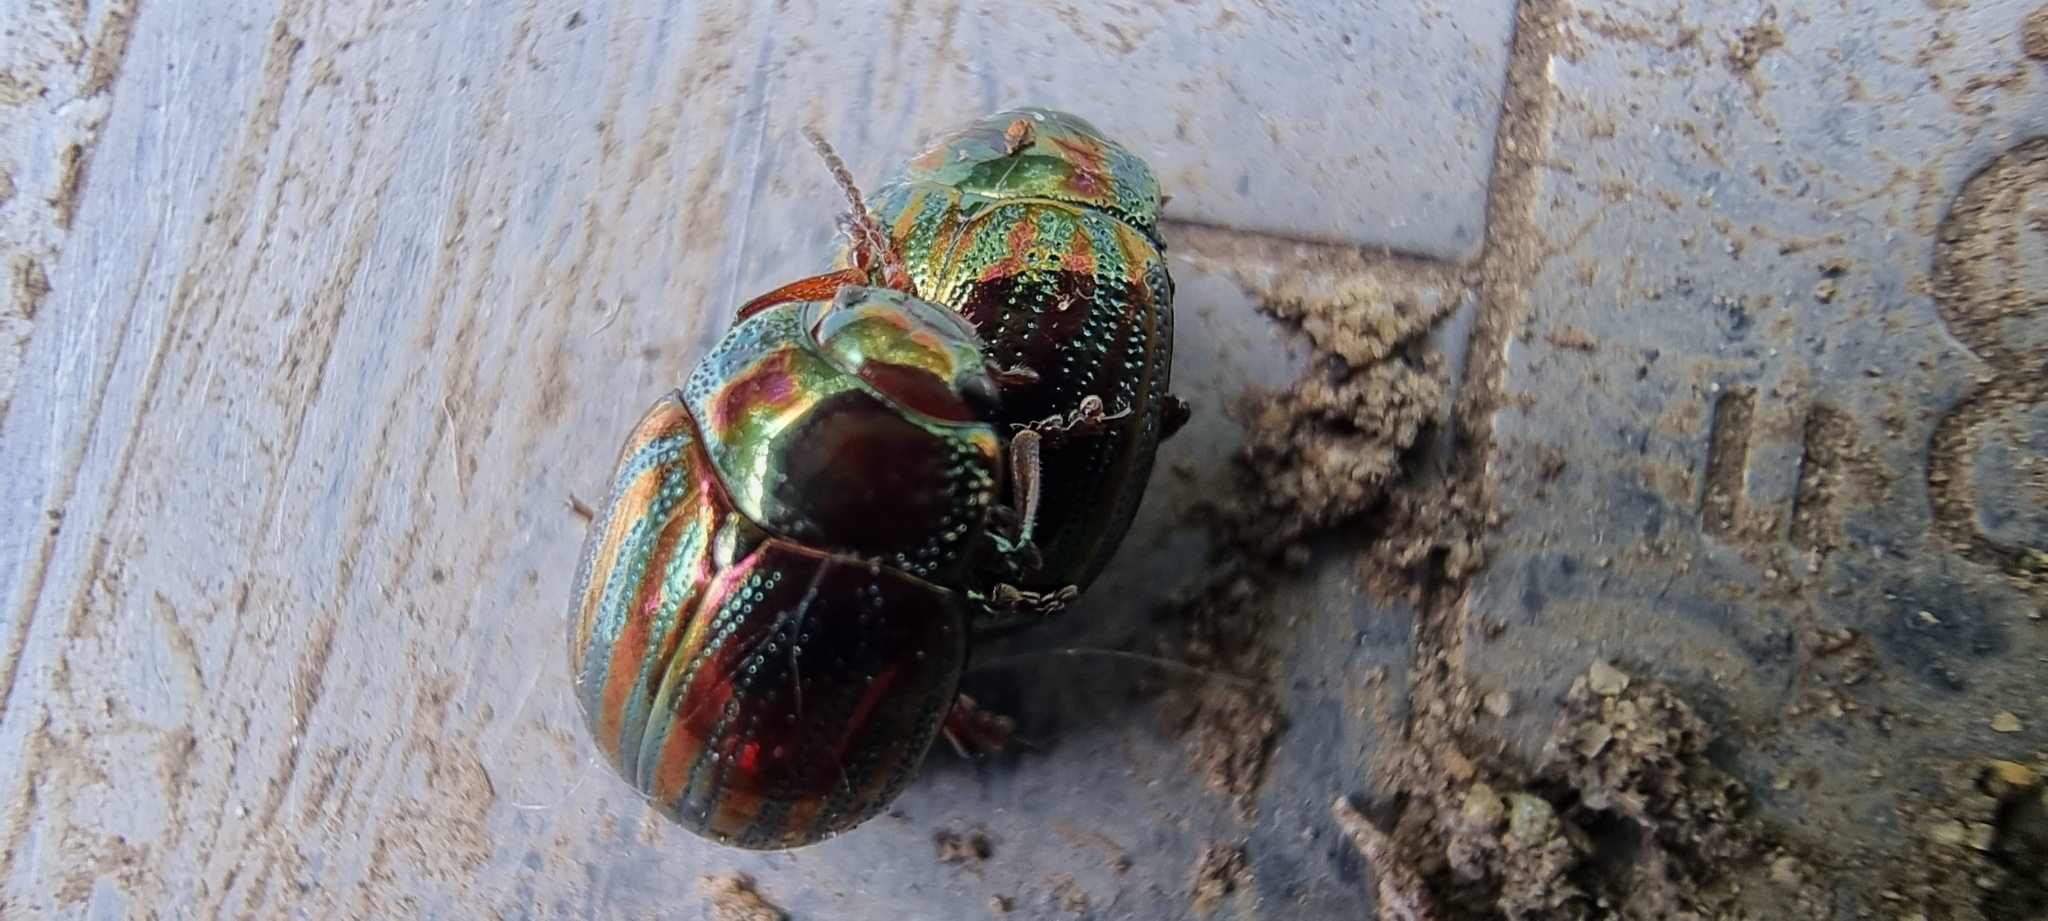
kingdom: Animalia
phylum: Arthropoda
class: Insecta
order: Coleoptera
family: Chrysomelidae
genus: Chrysolina
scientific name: Chrysolina americana
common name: Rosemary beetle
